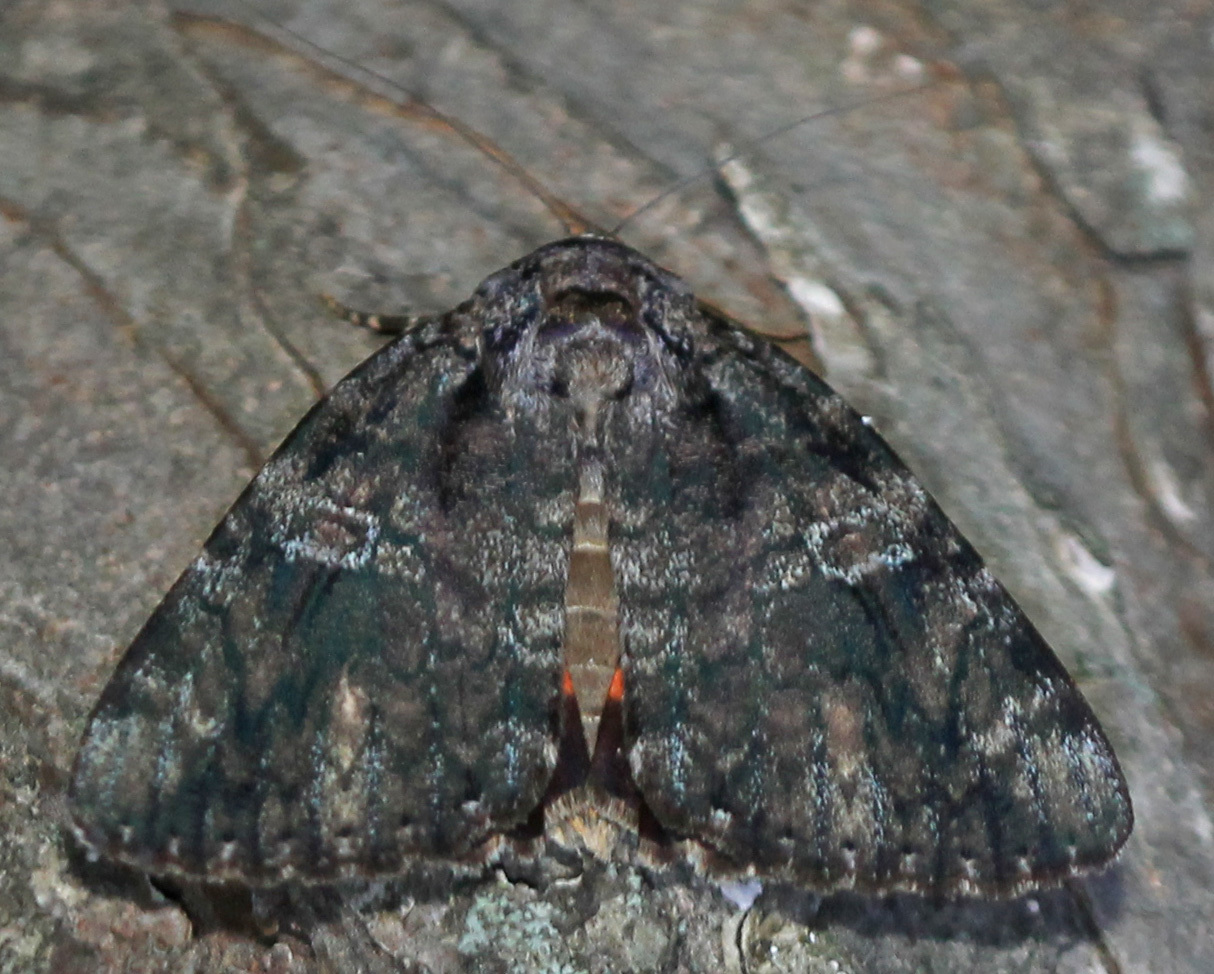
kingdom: Animalia
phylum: Arthropoda
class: Insecta
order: Lepidoptera
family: Erebidae
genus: Catocala
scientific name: Catocala ilia
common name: Ilia underwing
